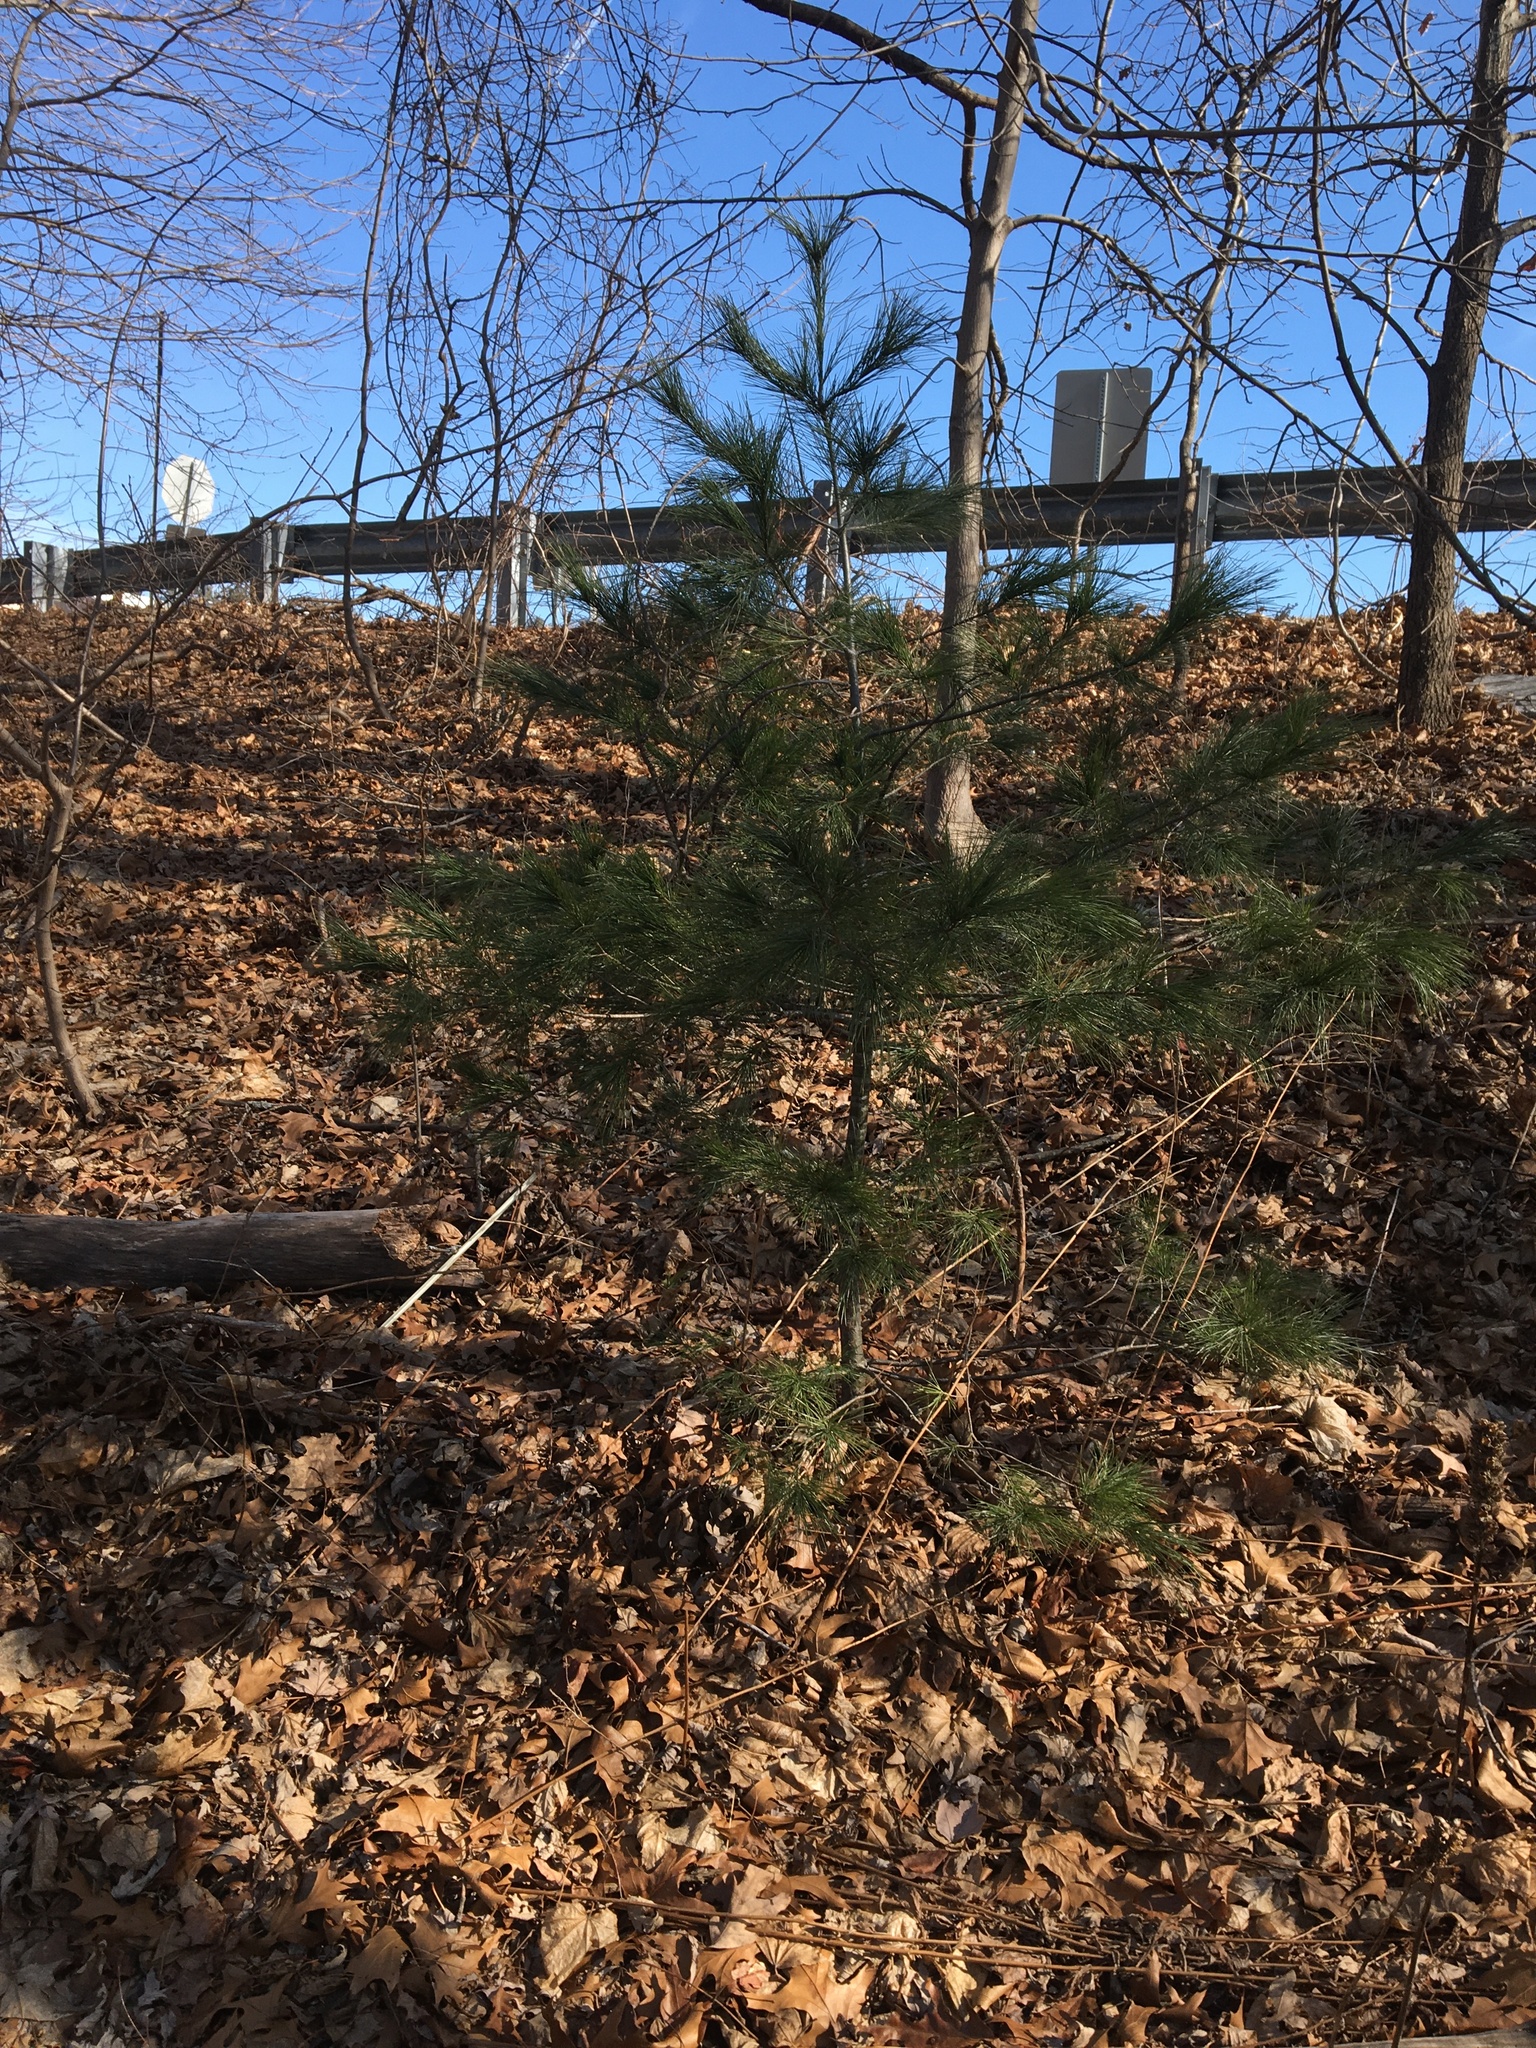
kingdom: Plantae
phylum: Tracheophyta
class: Pinopsida
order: Pinales
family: Pinaceae
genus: Pinus
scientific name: Pinus strobus
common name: Weymouth pine
